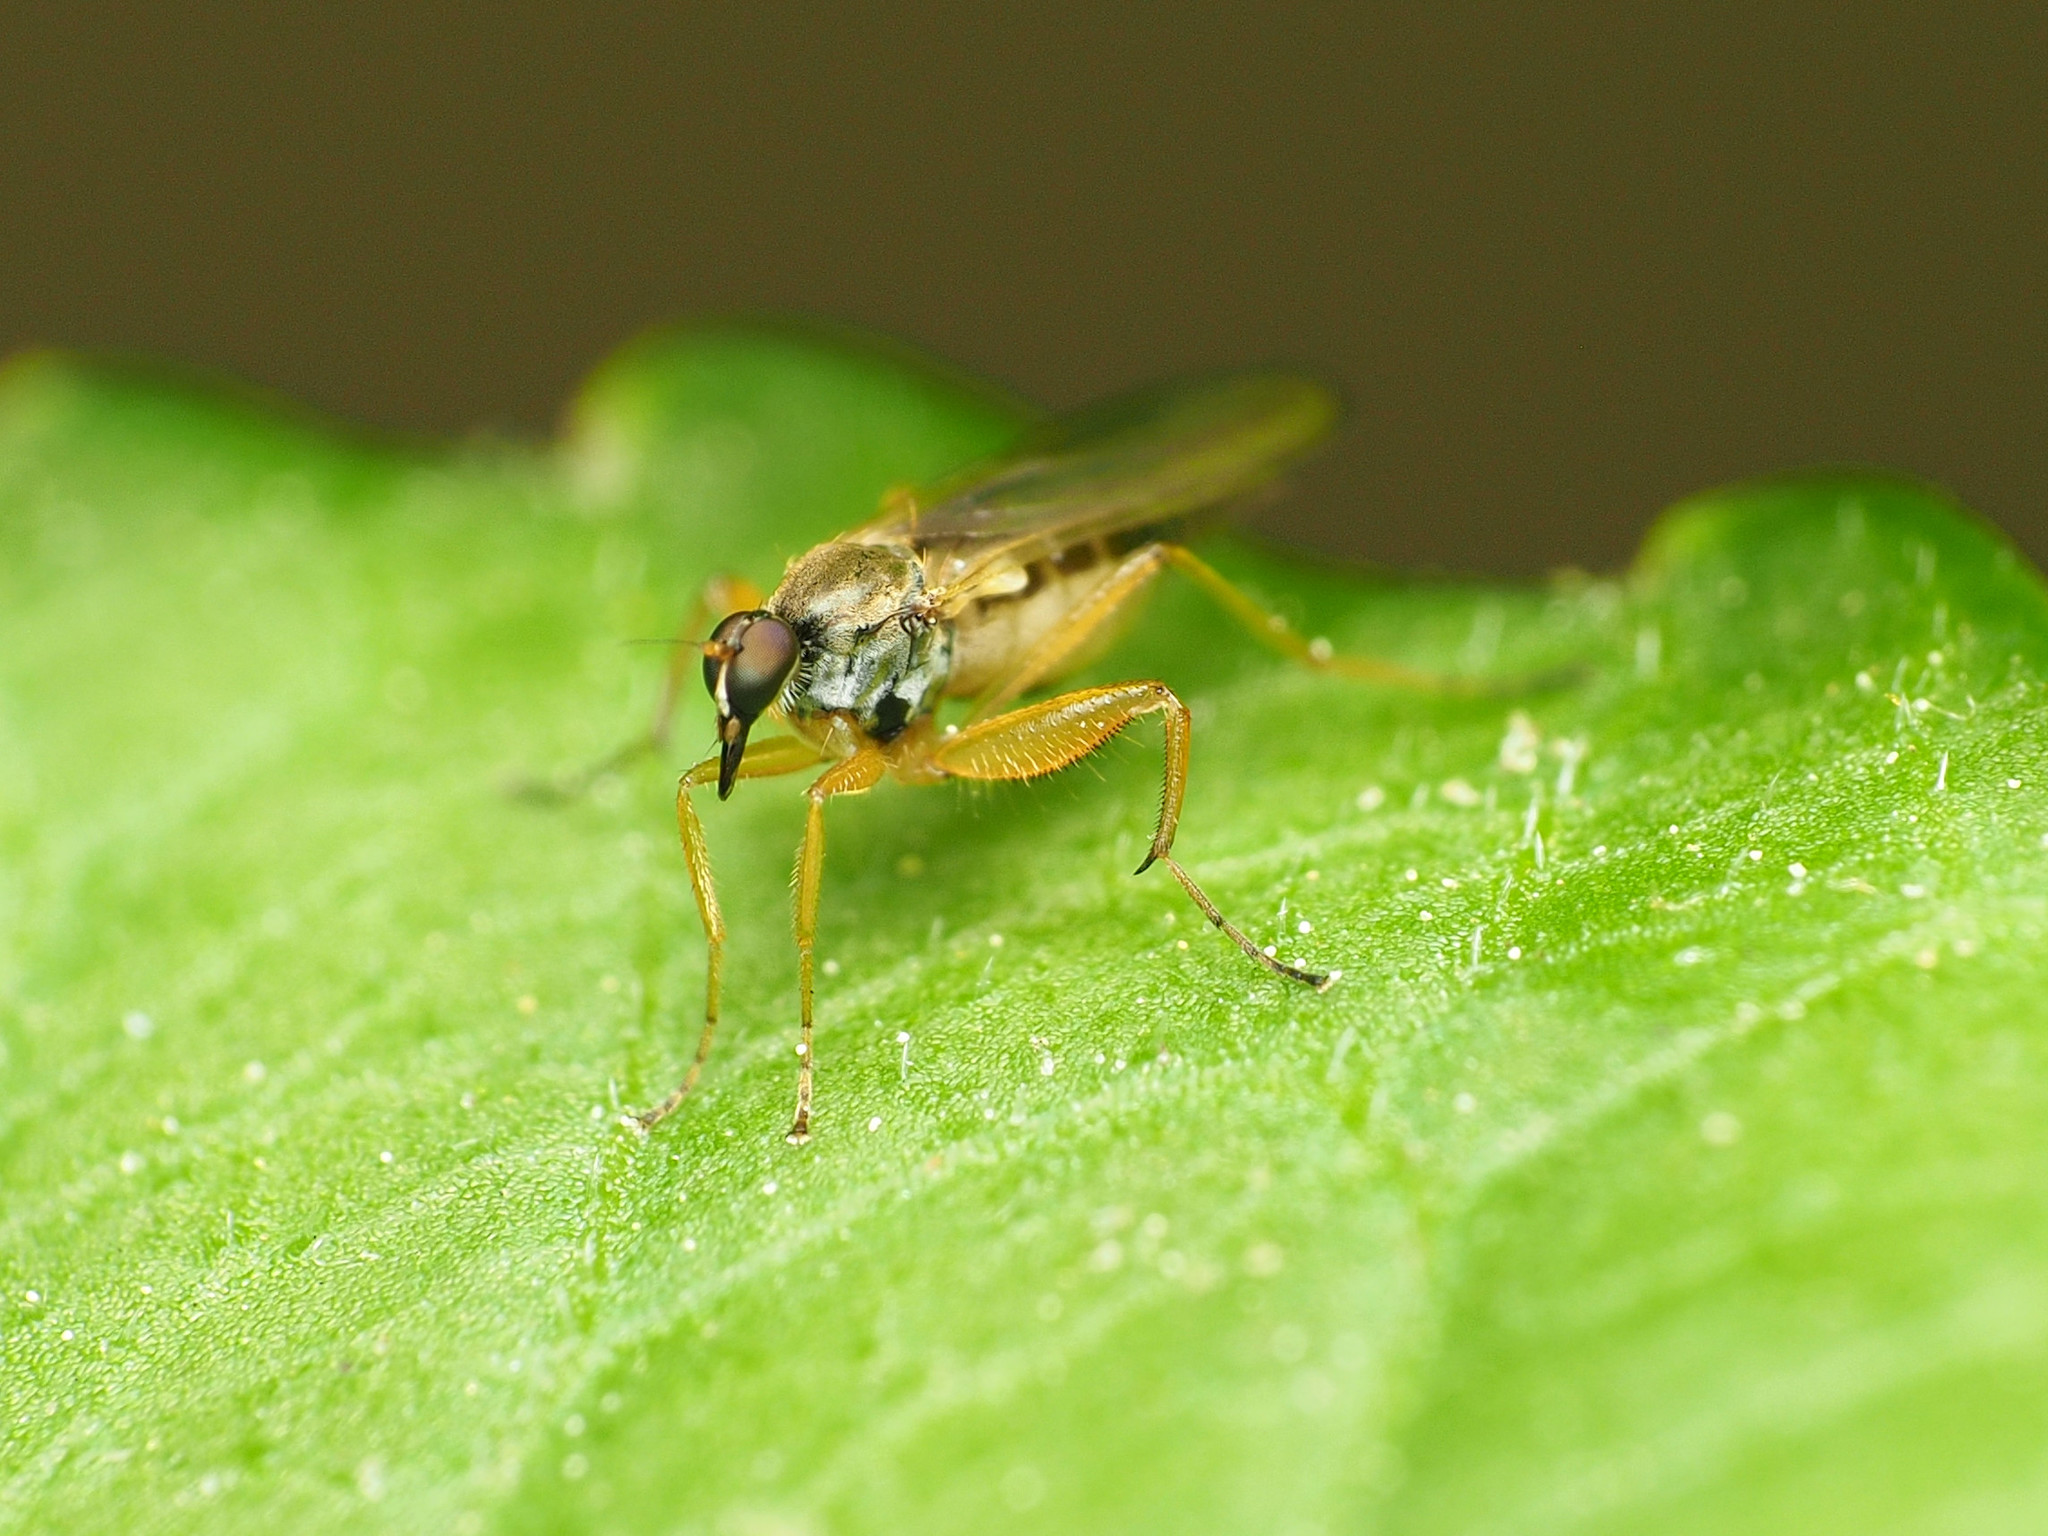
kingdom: Animalia
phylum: Arthropoda
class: Insecta
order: Diptera
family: Hybotidae
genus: Platypalpus
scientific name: Platypalpus discifer
